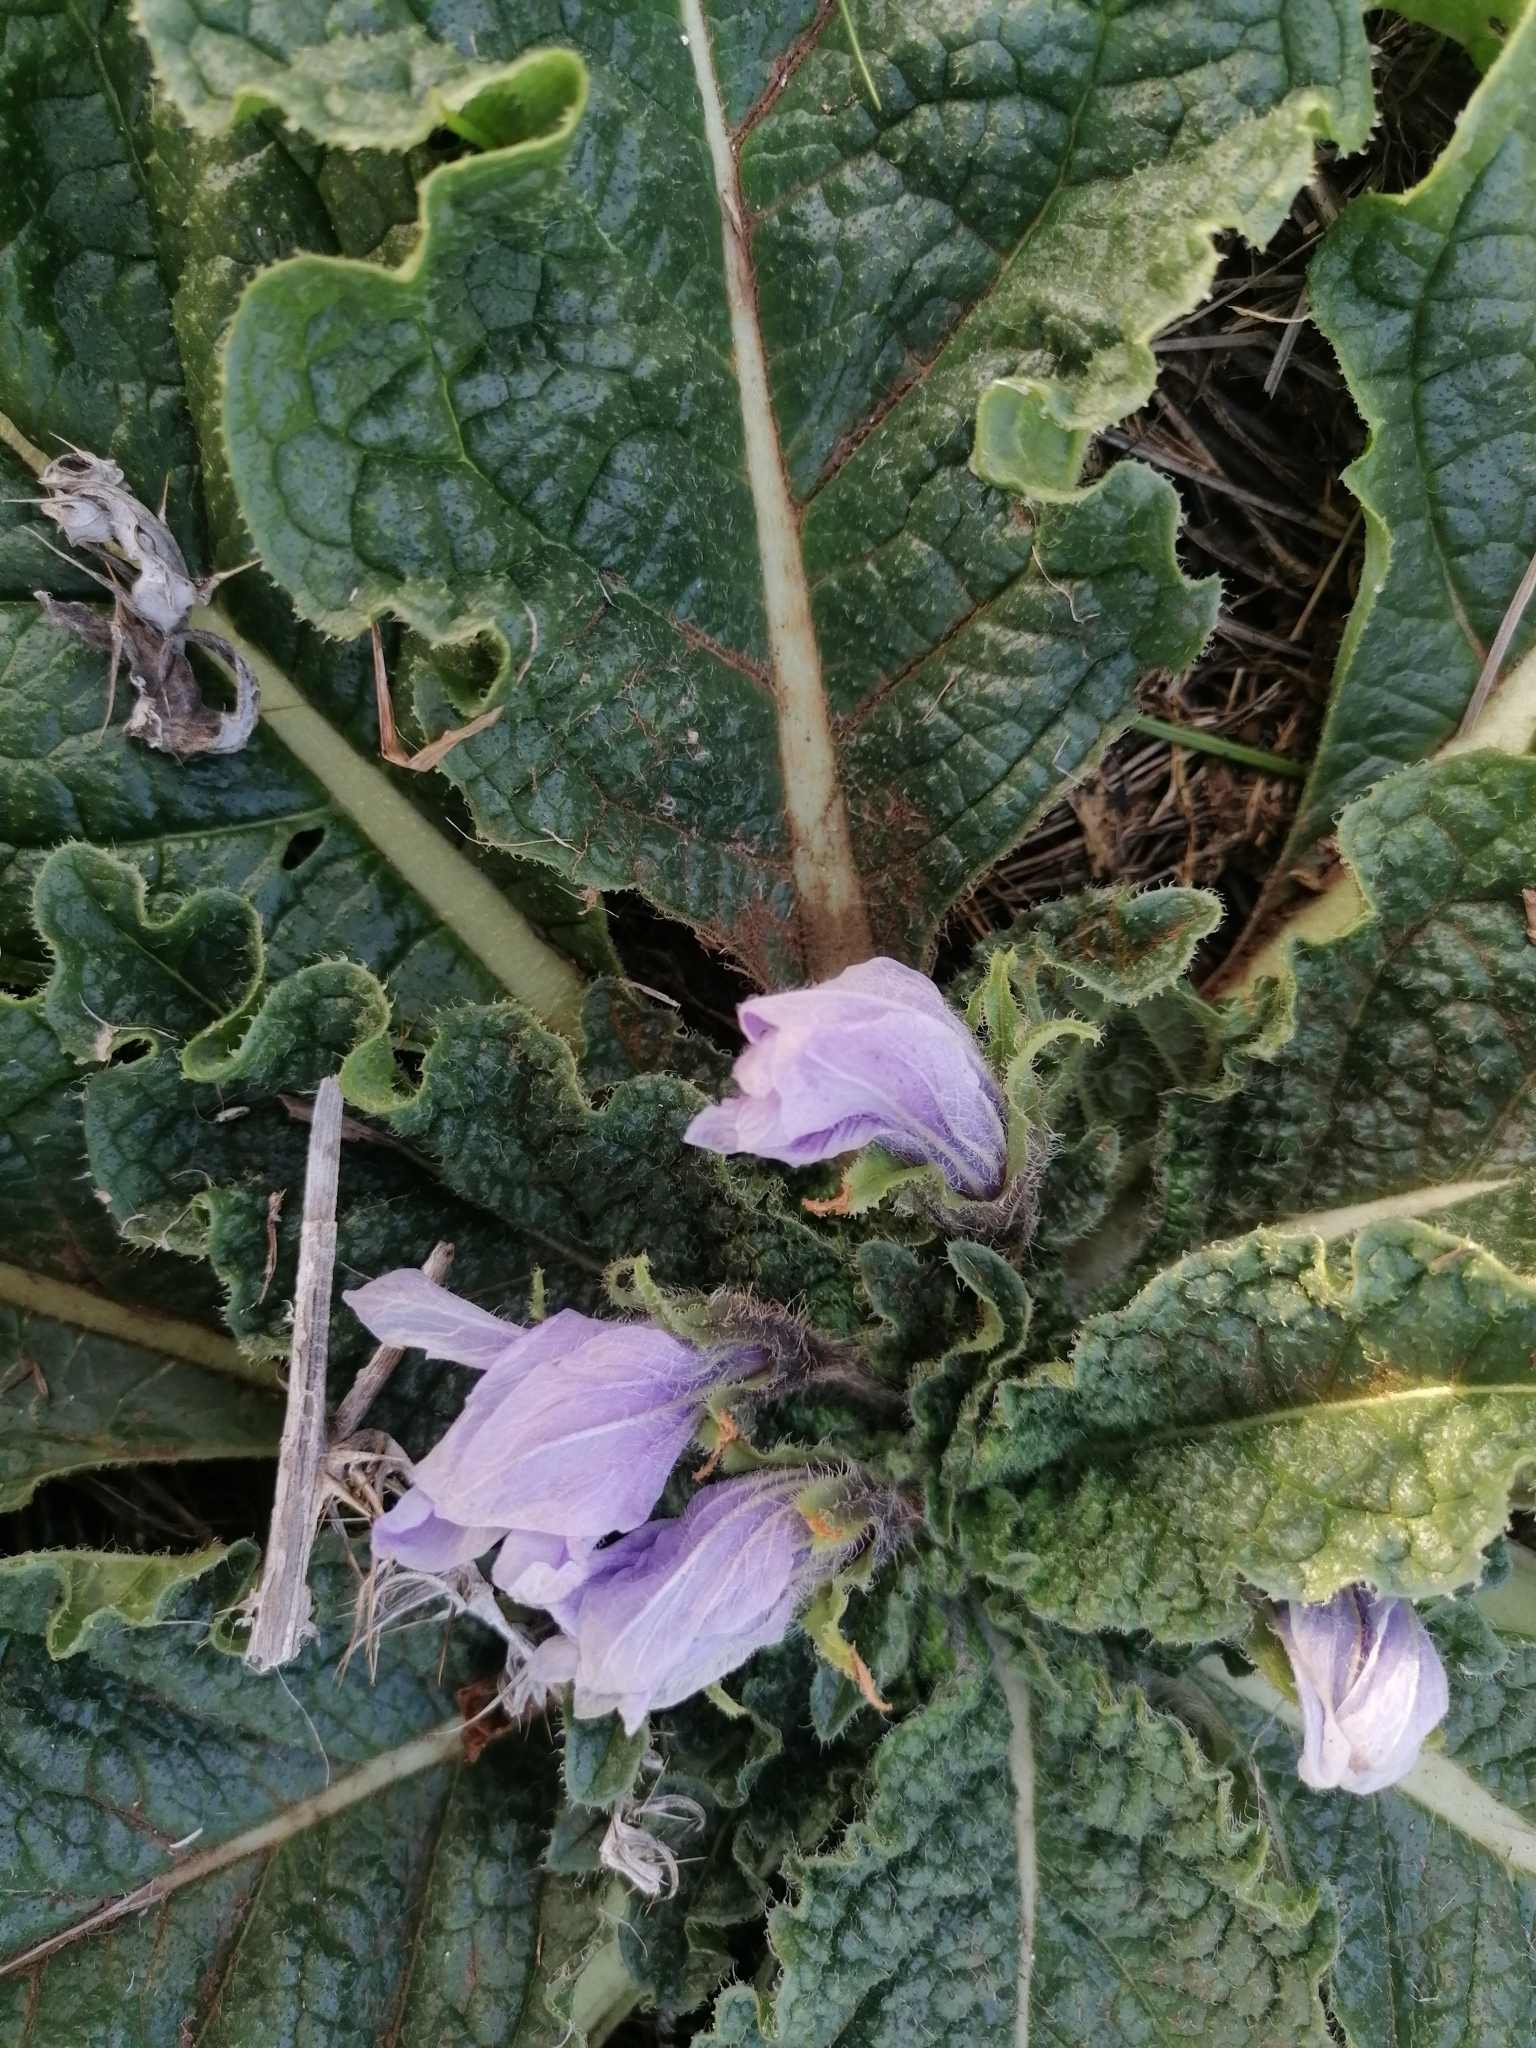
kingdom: Plantae
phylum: Tracheophyta
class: Magnoliopsida
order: Solanales
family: Solanaceae
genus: Mandragora
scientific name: Mandragora officinarum
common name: Mandrake
